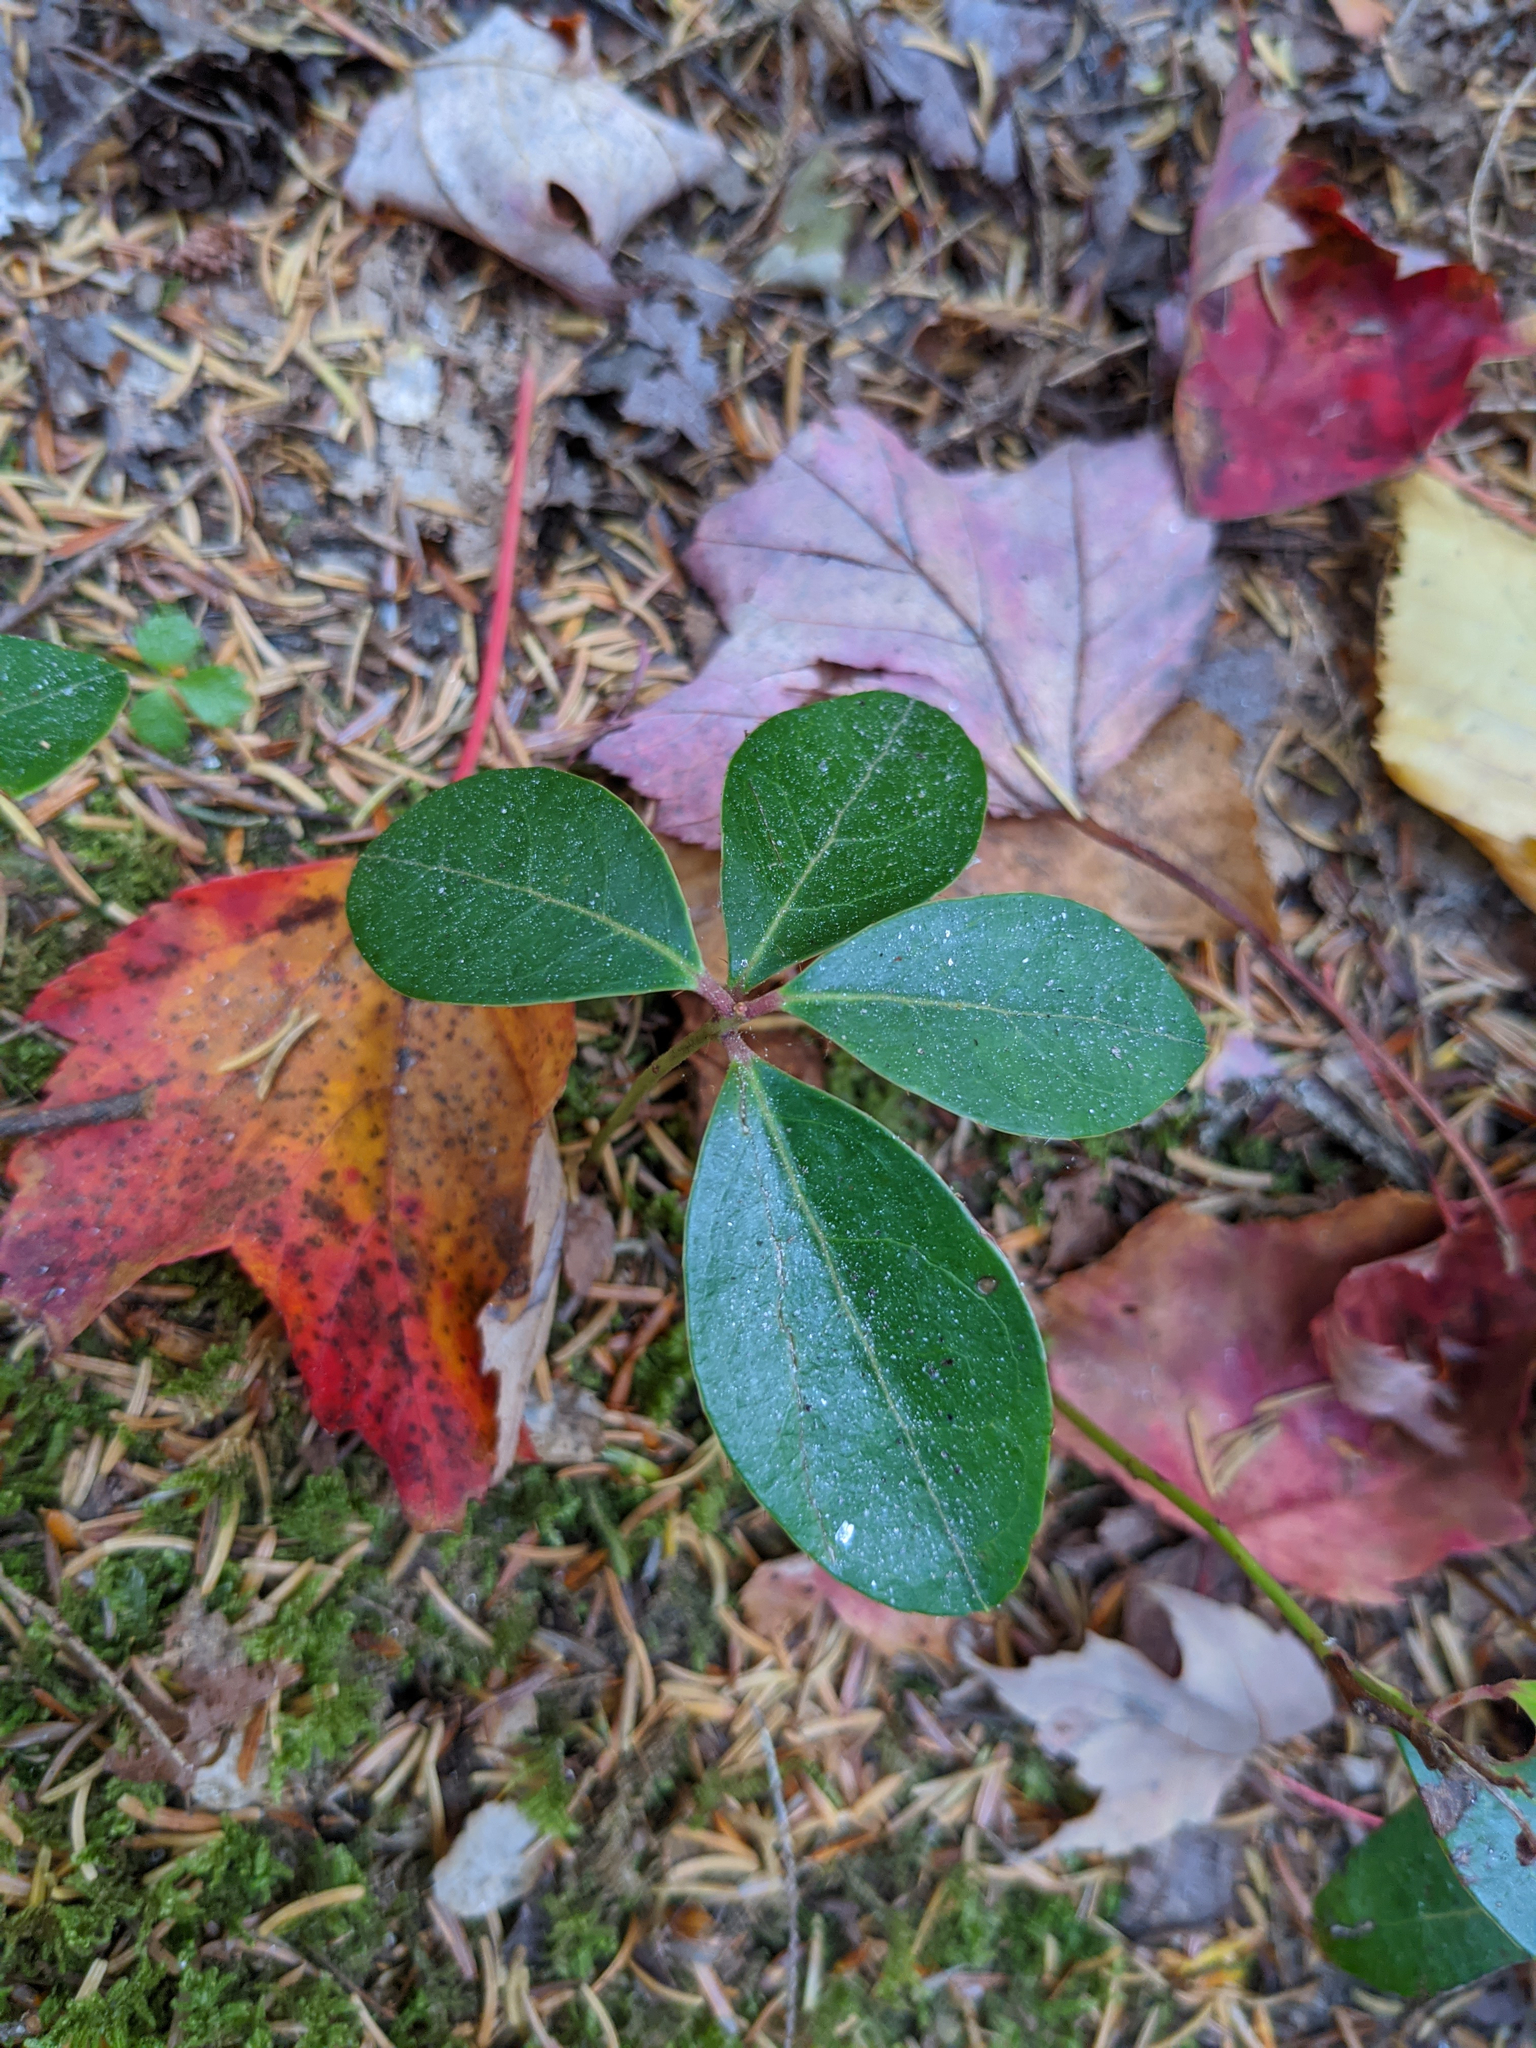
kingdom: Plantae
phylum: Tracheophyta
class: Magnoliopsida
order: Ericales
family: Ericaceae
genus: Gaultheria
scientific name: Gaultheria procumbens
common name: Checkerberry
